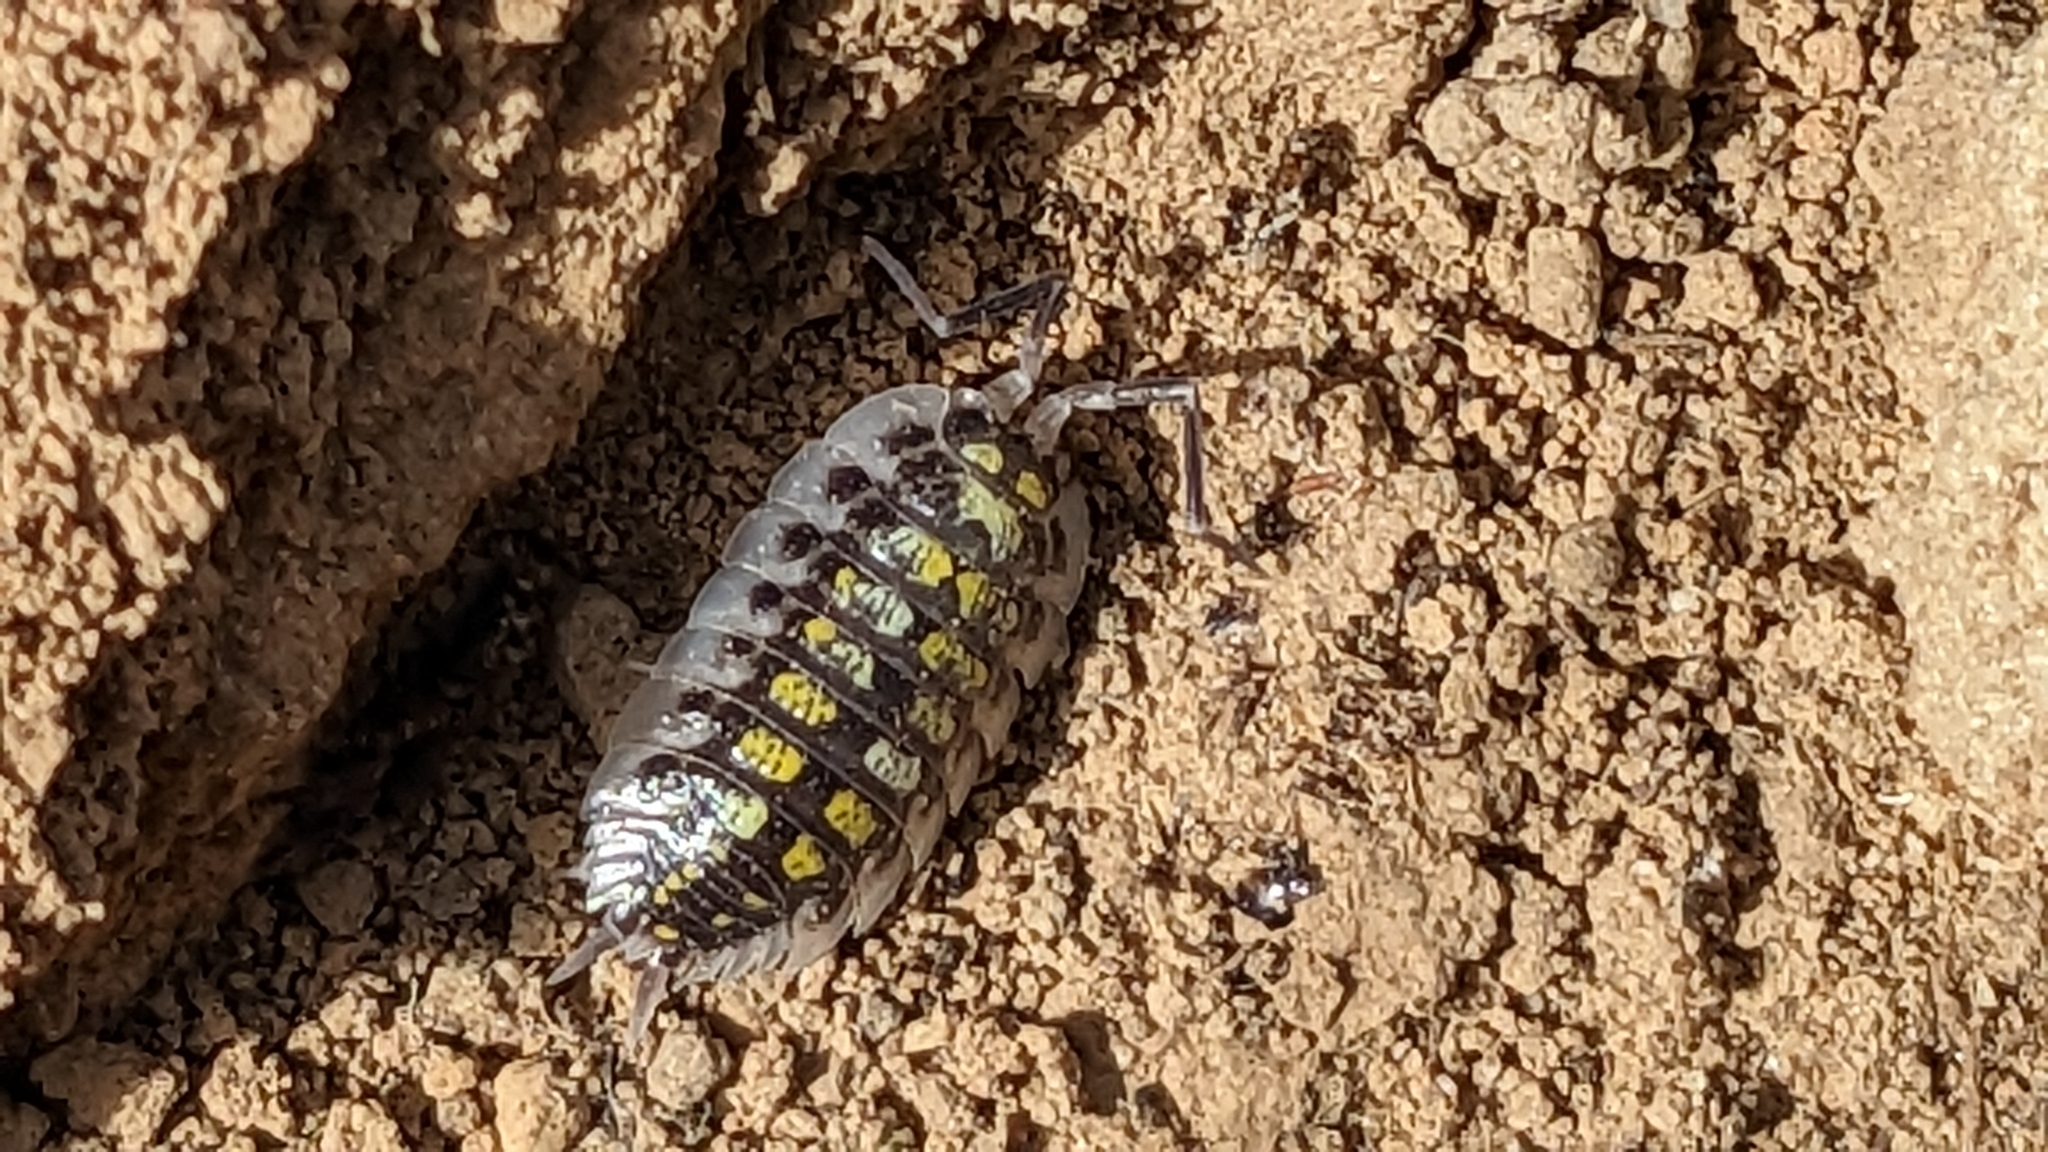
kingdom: Animalia
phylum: Arthropoda
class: Malacostraca
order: Isopoda
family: Porcellionidae
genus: Porcellio
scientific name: Porcellio haasi
